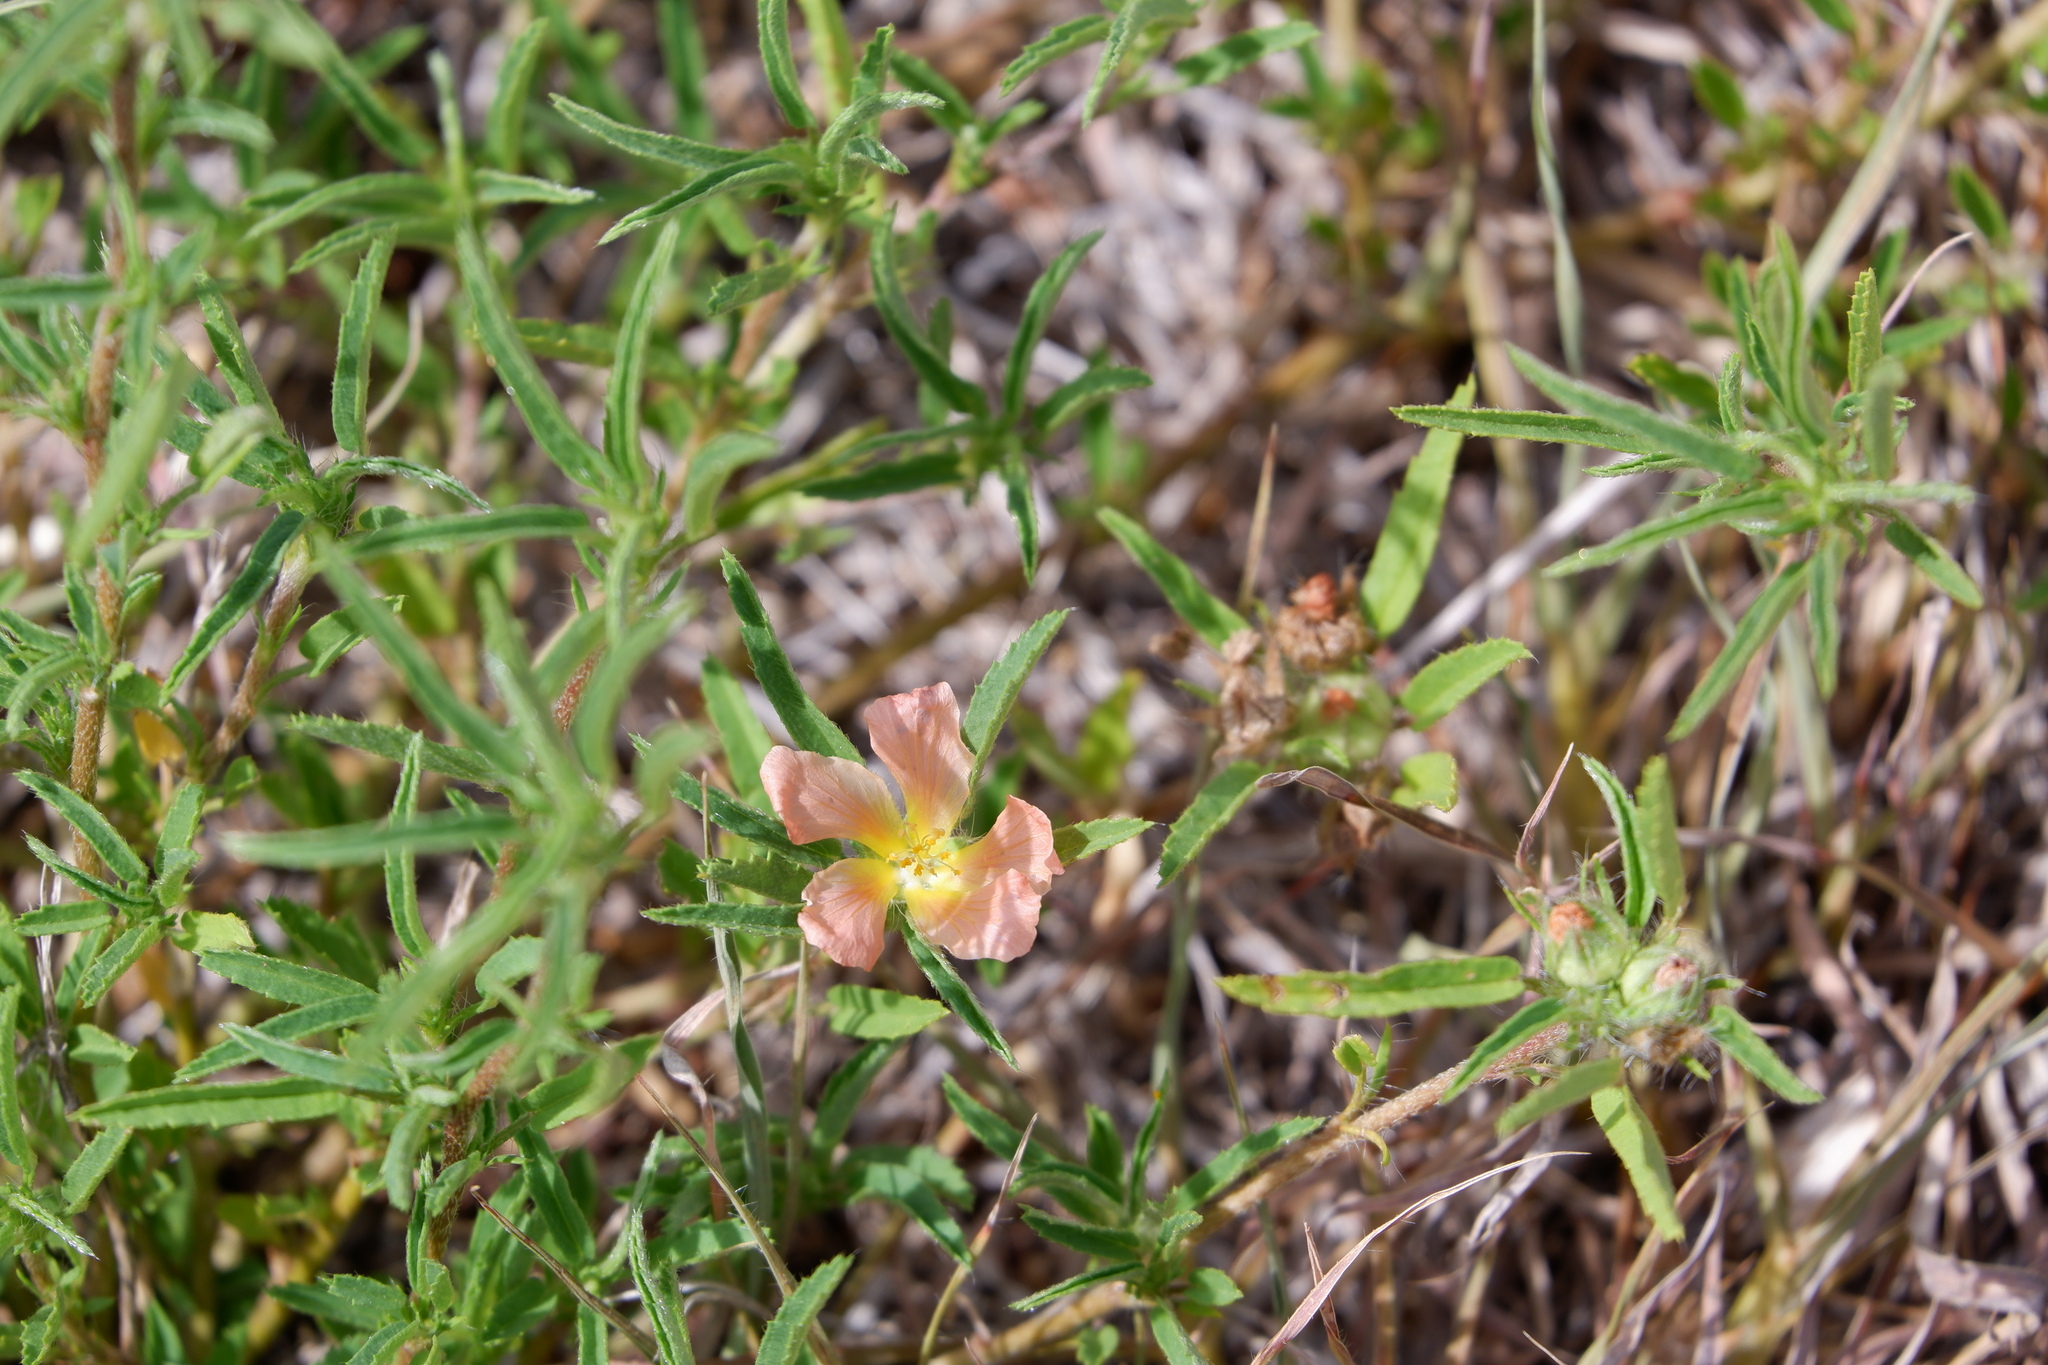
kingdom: Plantae
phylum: Tracheophyta
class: Magnoliopsida
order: Malvales
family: Malvaceae
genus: Sida
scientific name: Sida ciliaris
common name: Bracted fanpetals
